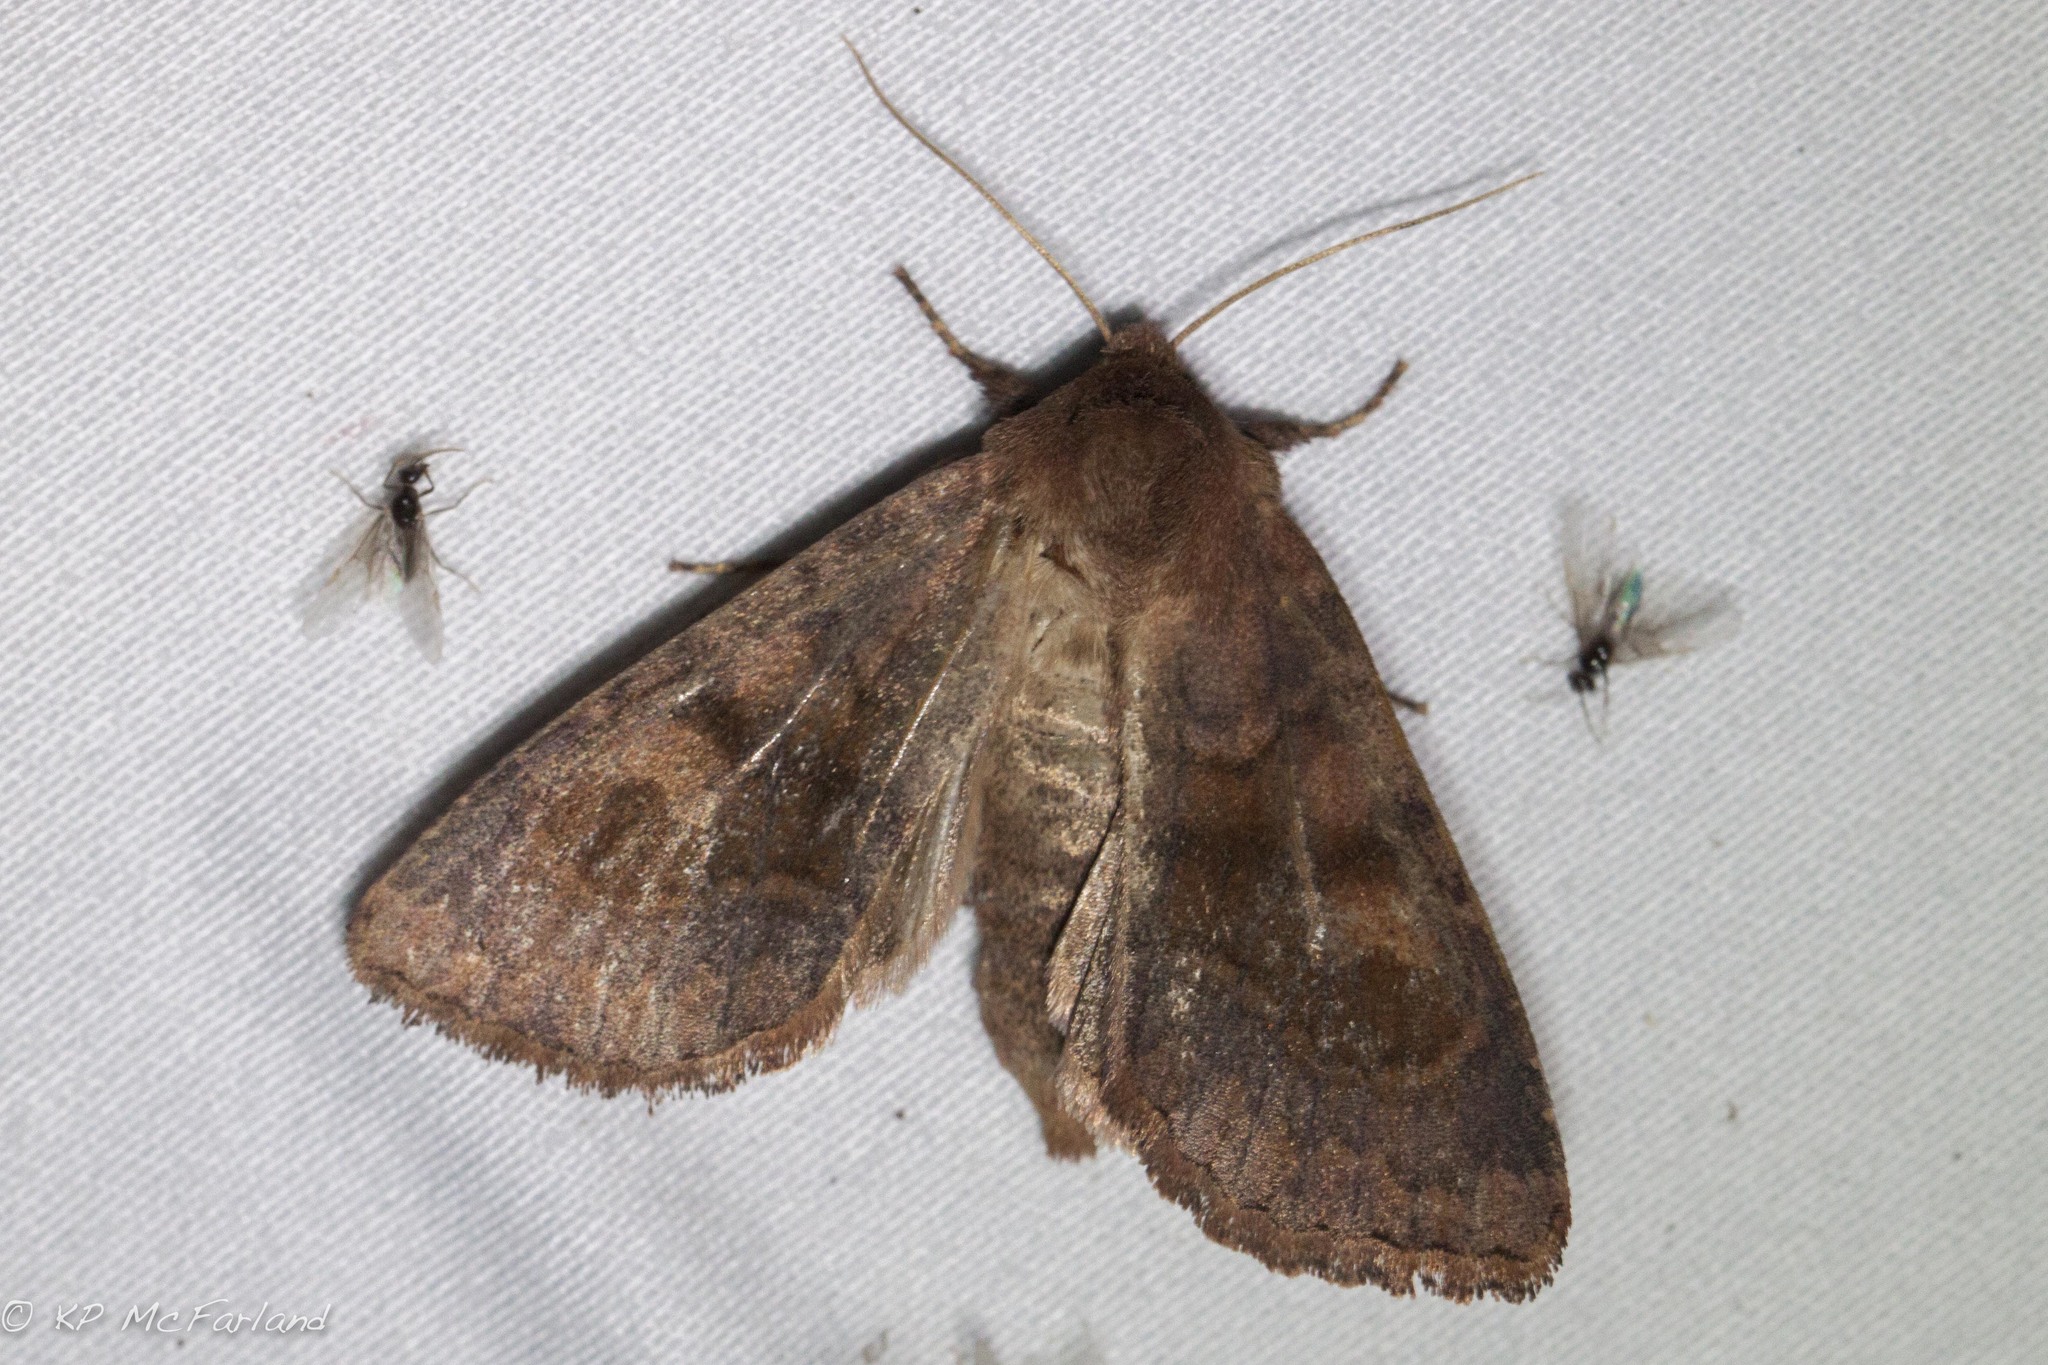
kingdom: Animalia
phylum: Arthropoda
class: Insecta
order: Lepidoptera
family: Noctuidae
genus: Nephelodes
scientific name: Nephelodes minians
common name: Bronzed cutworm
